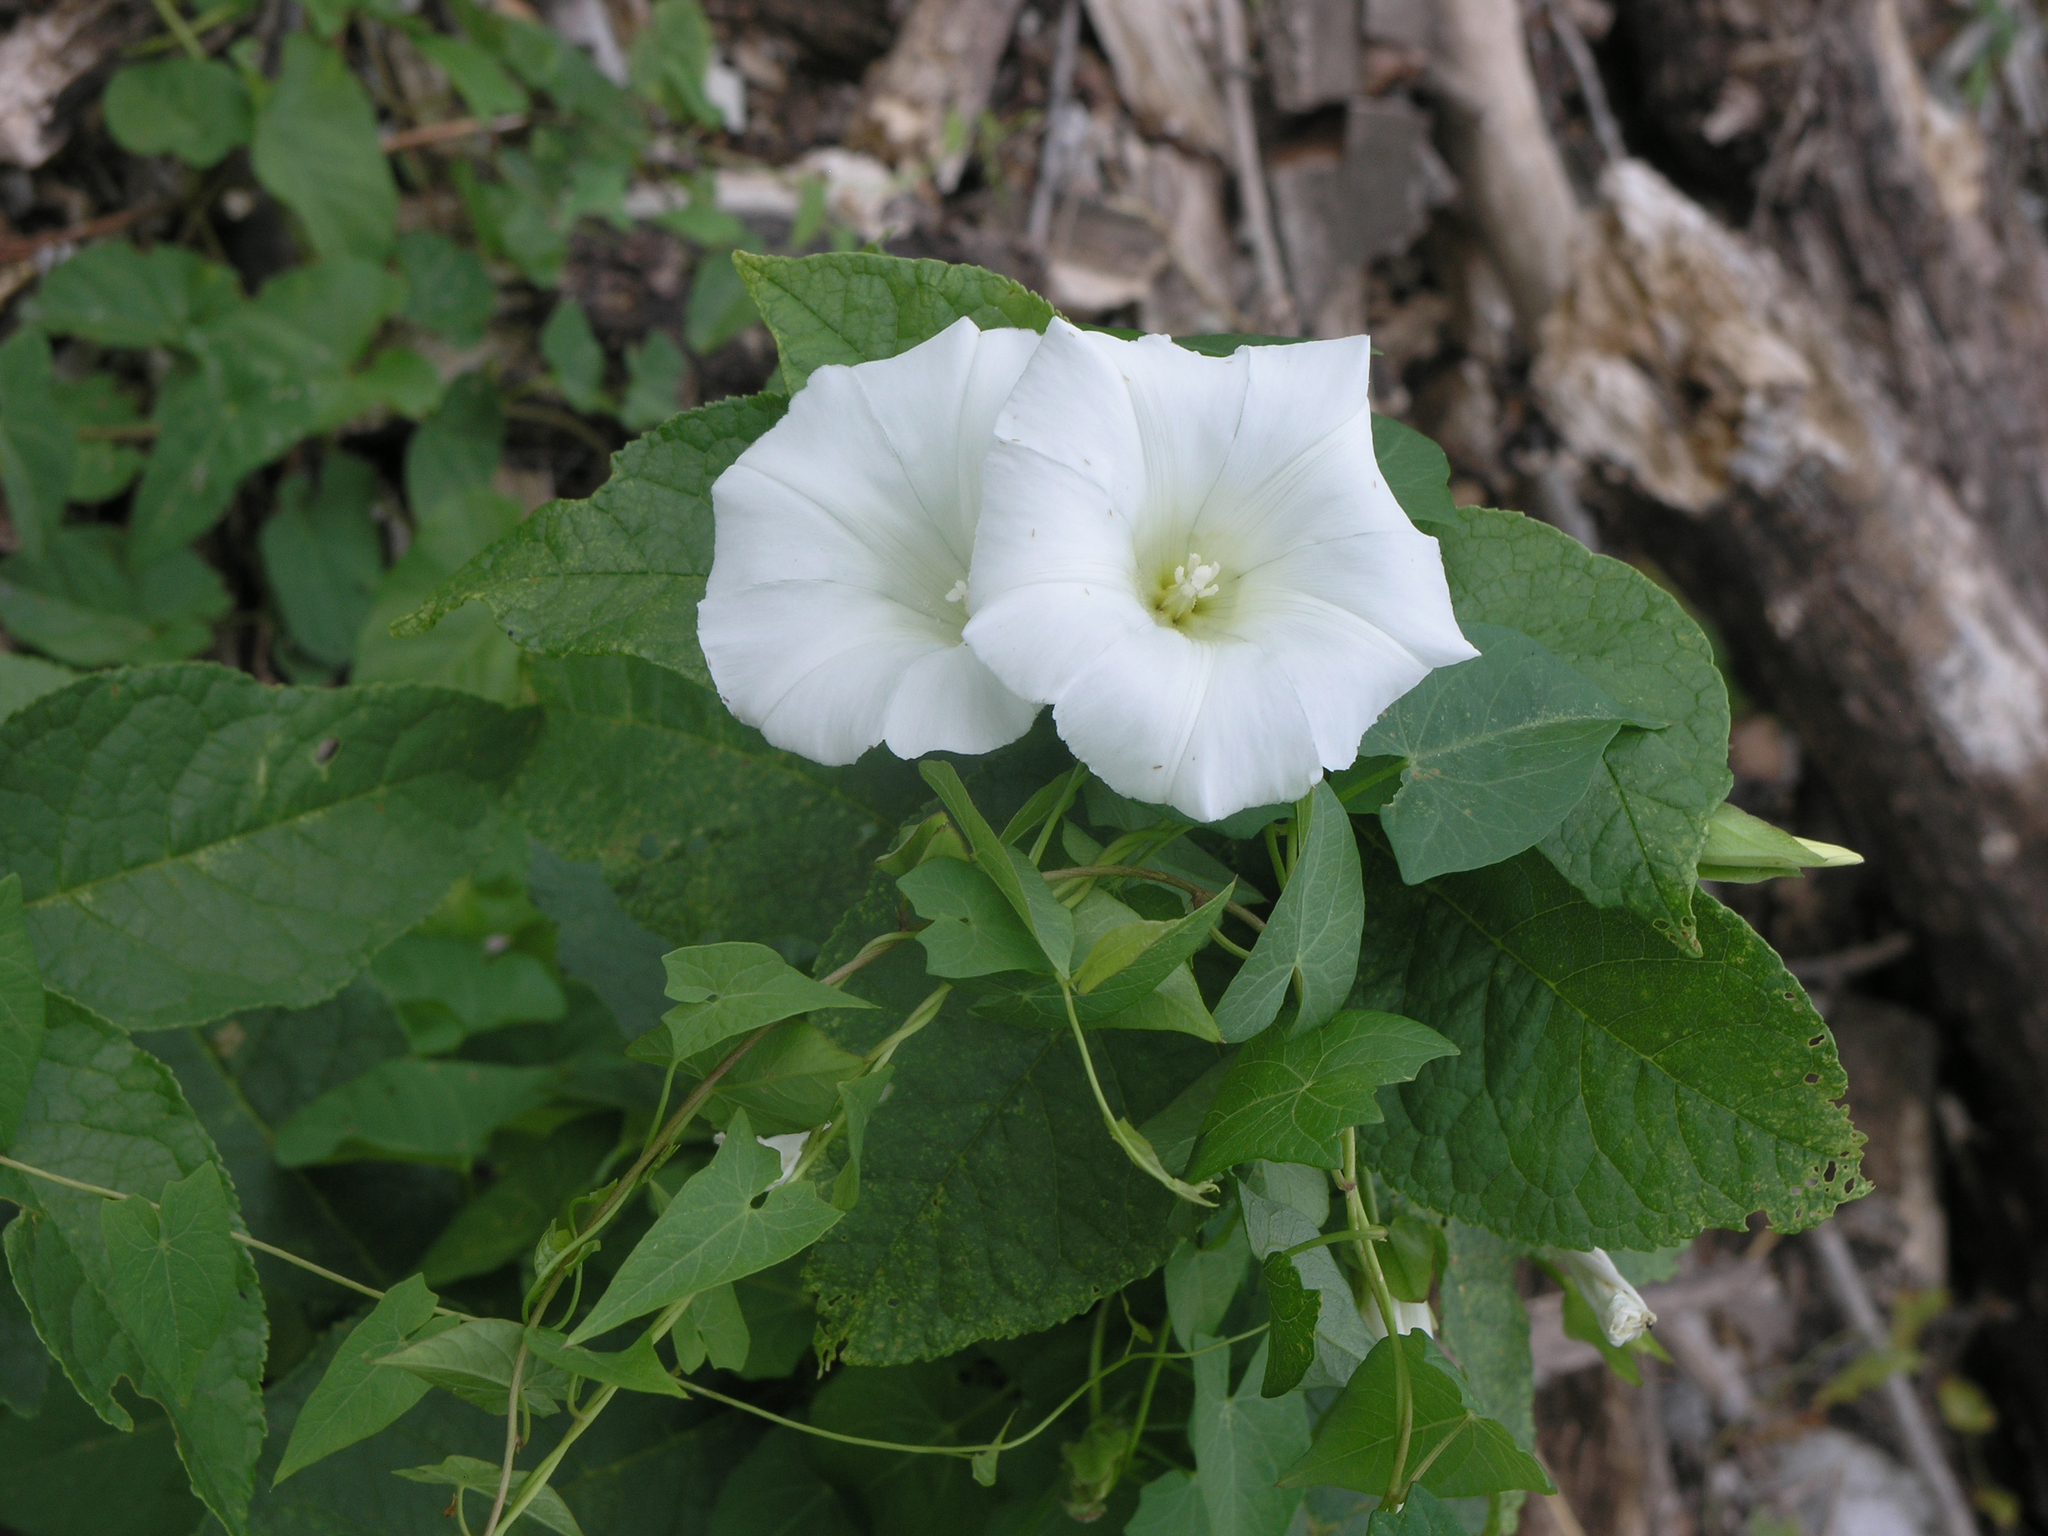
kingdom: Plantae
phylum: Tracheophyta
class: Magnoliopsida
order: Solanales
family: Convolvulaceae
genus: Calystegia
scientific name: Calystegia sepium
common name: Hedge bindweed
